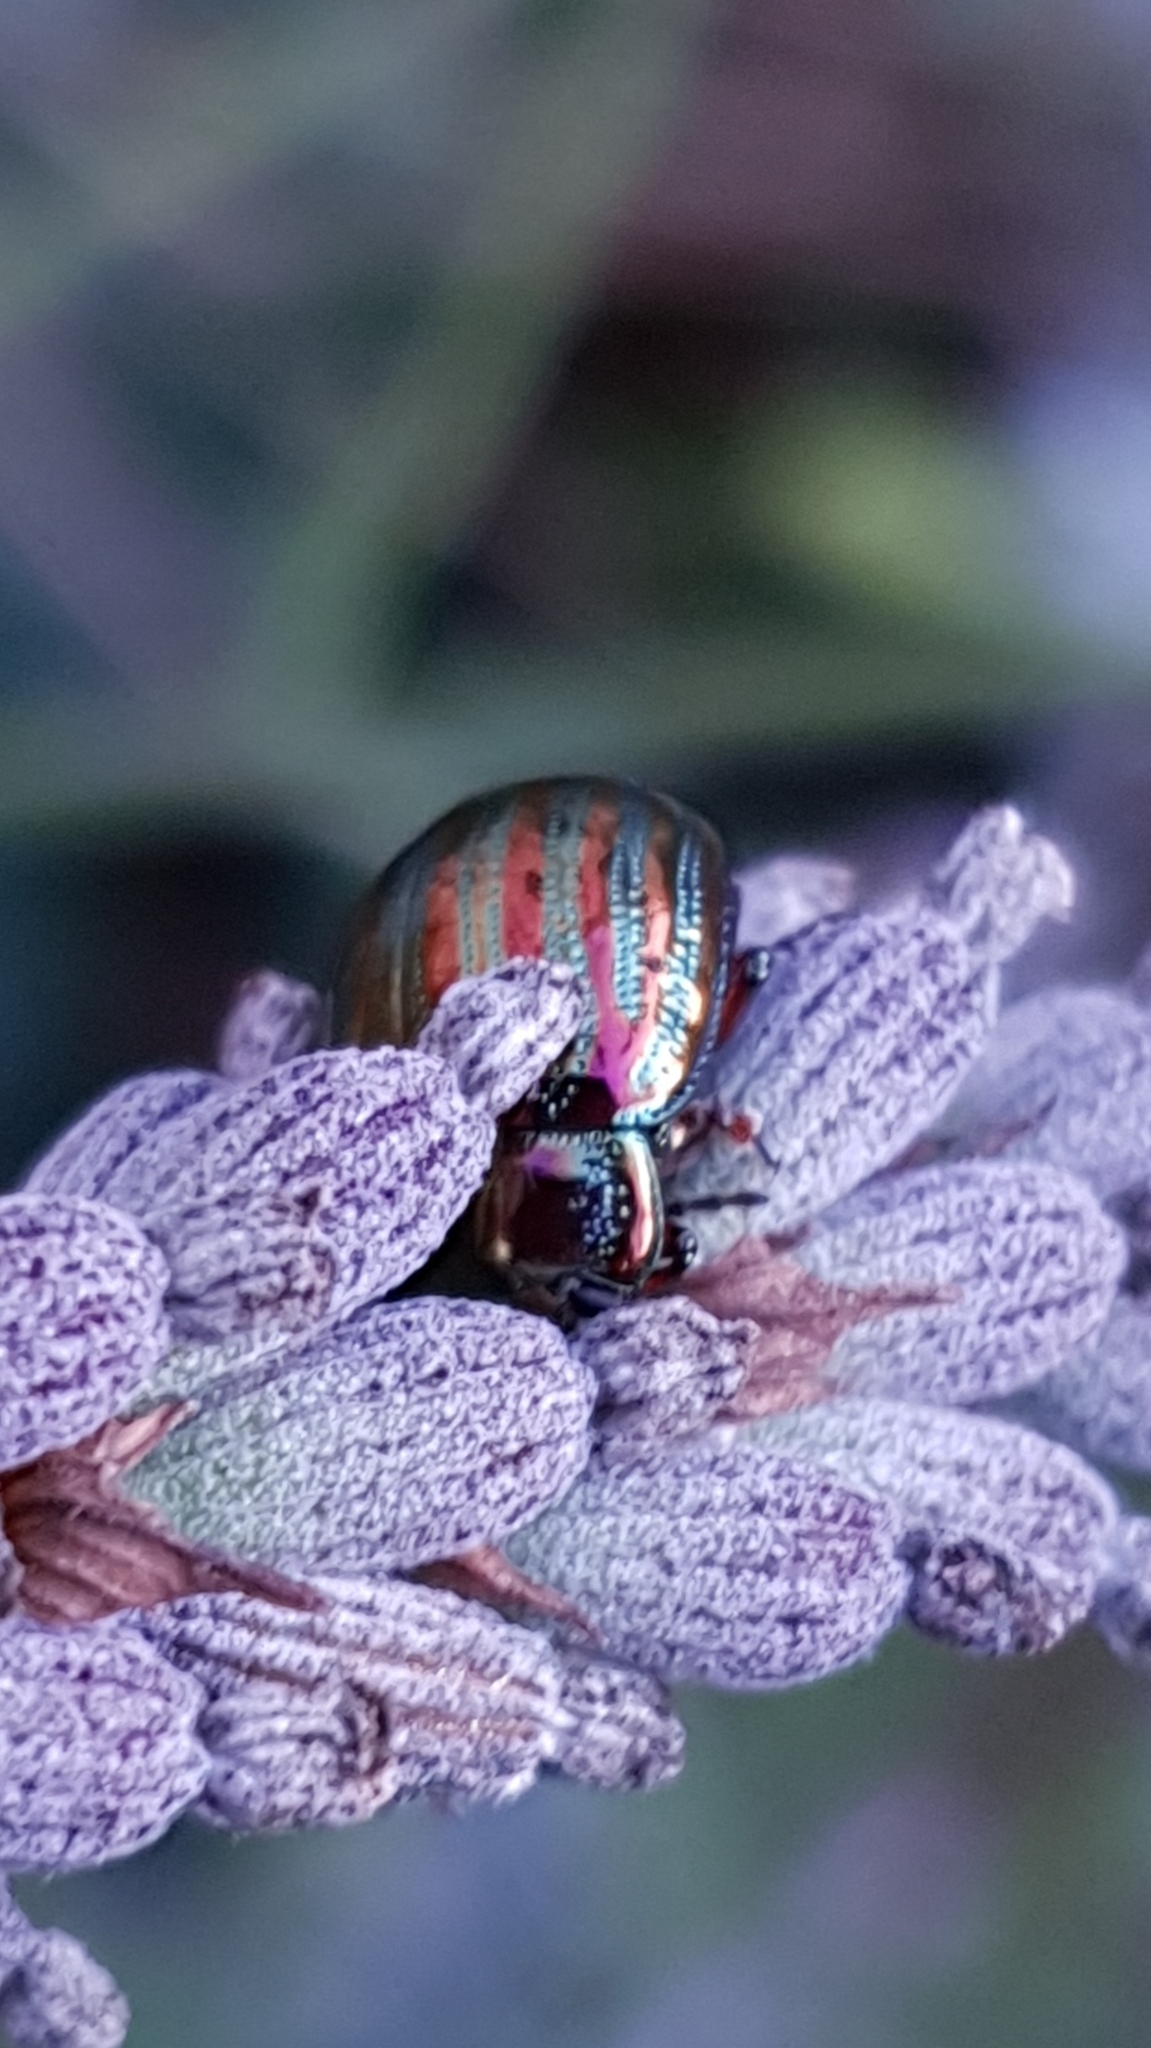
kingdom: Animalia
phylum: Arthropoda
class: Insecta
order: Coleoptera
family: Chrysomelidae
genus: Chrysolina
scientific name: Chrysolina americana
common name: Rosemary beetle
